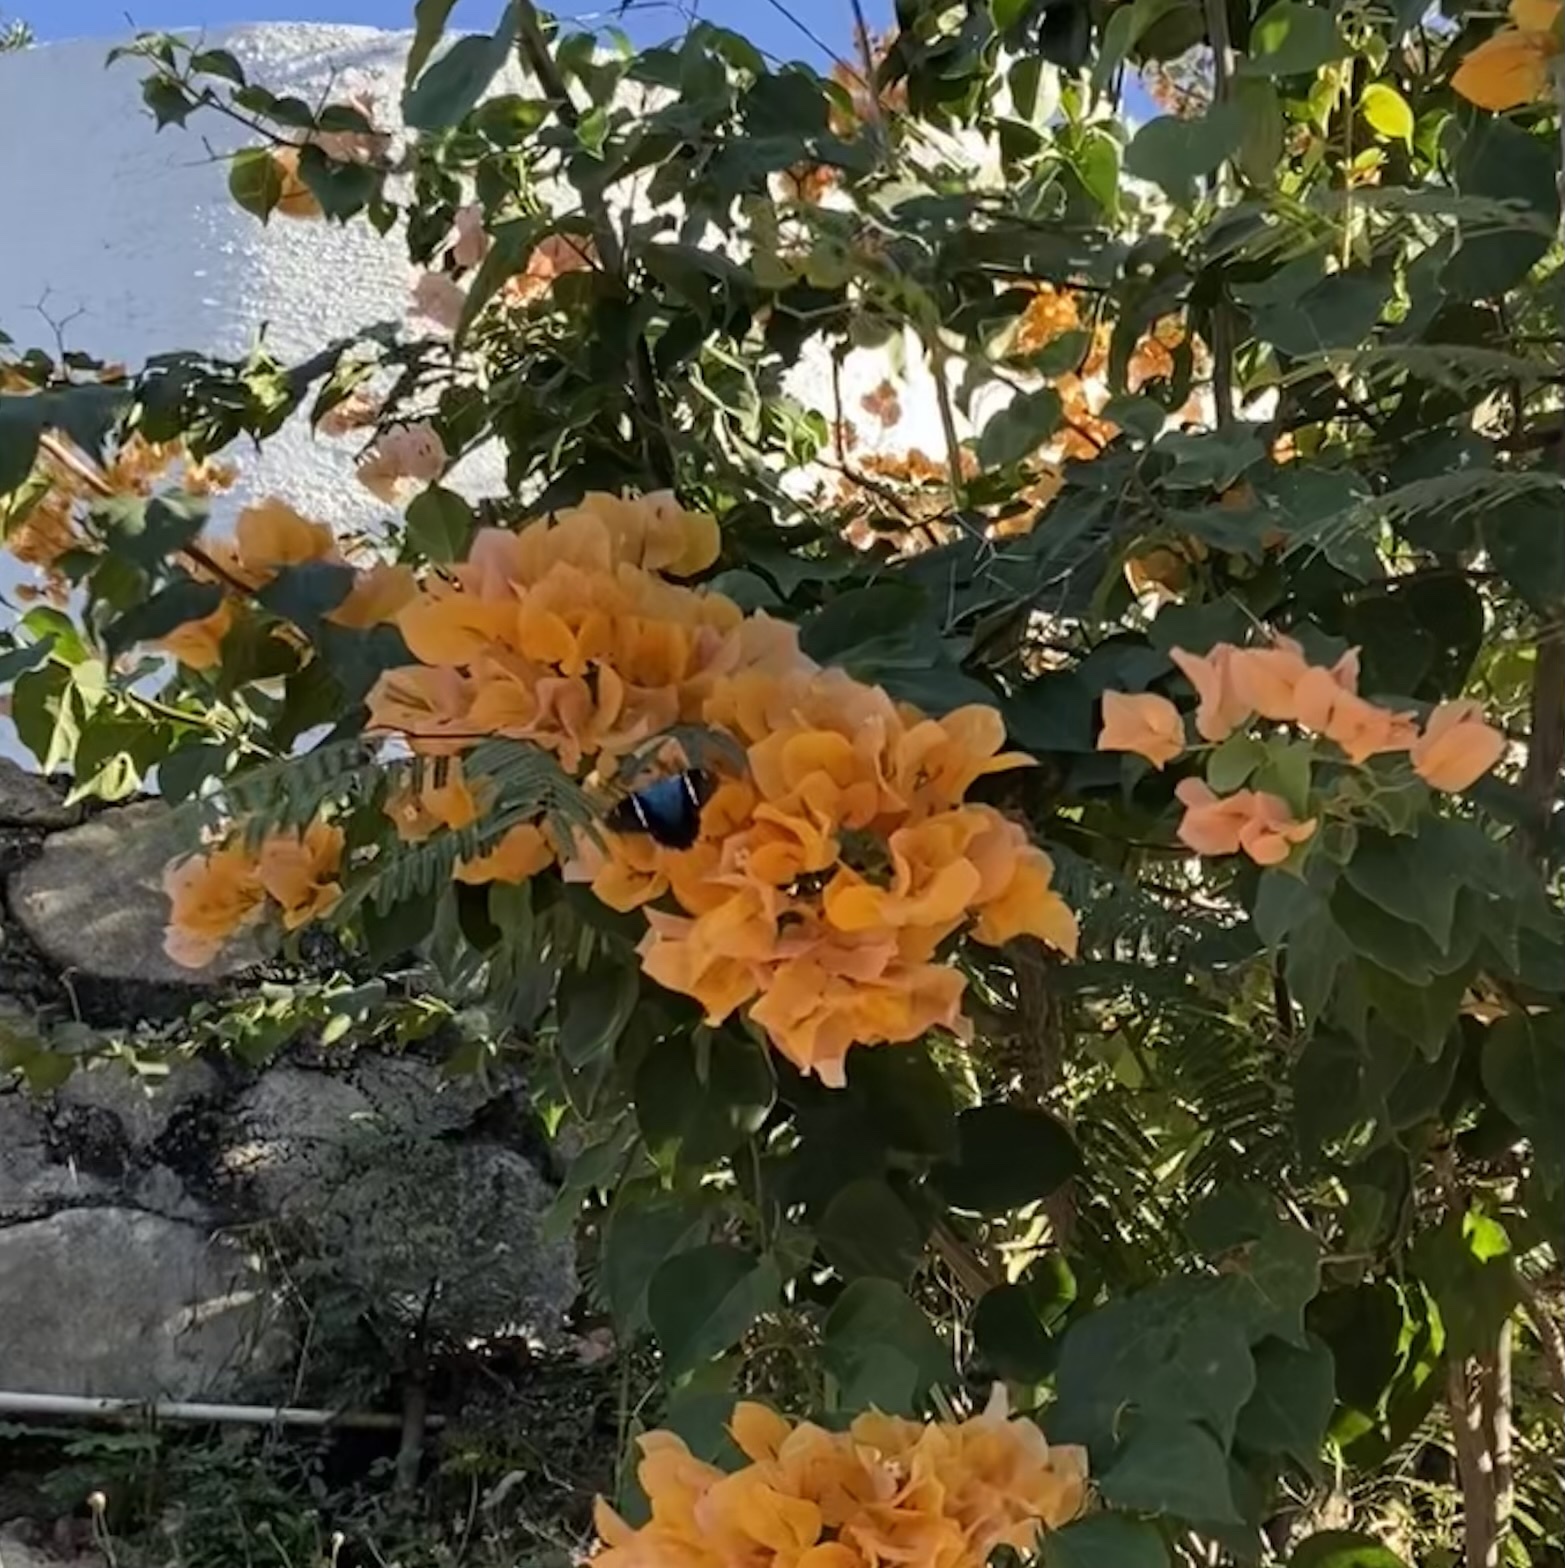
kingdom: Animalia
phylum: Arthropoda
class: Insecta
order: Lepidoptera
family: Hesperiidae
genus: Astraptes
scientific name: Astraptes fulgerator
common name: Two-barred flasher
